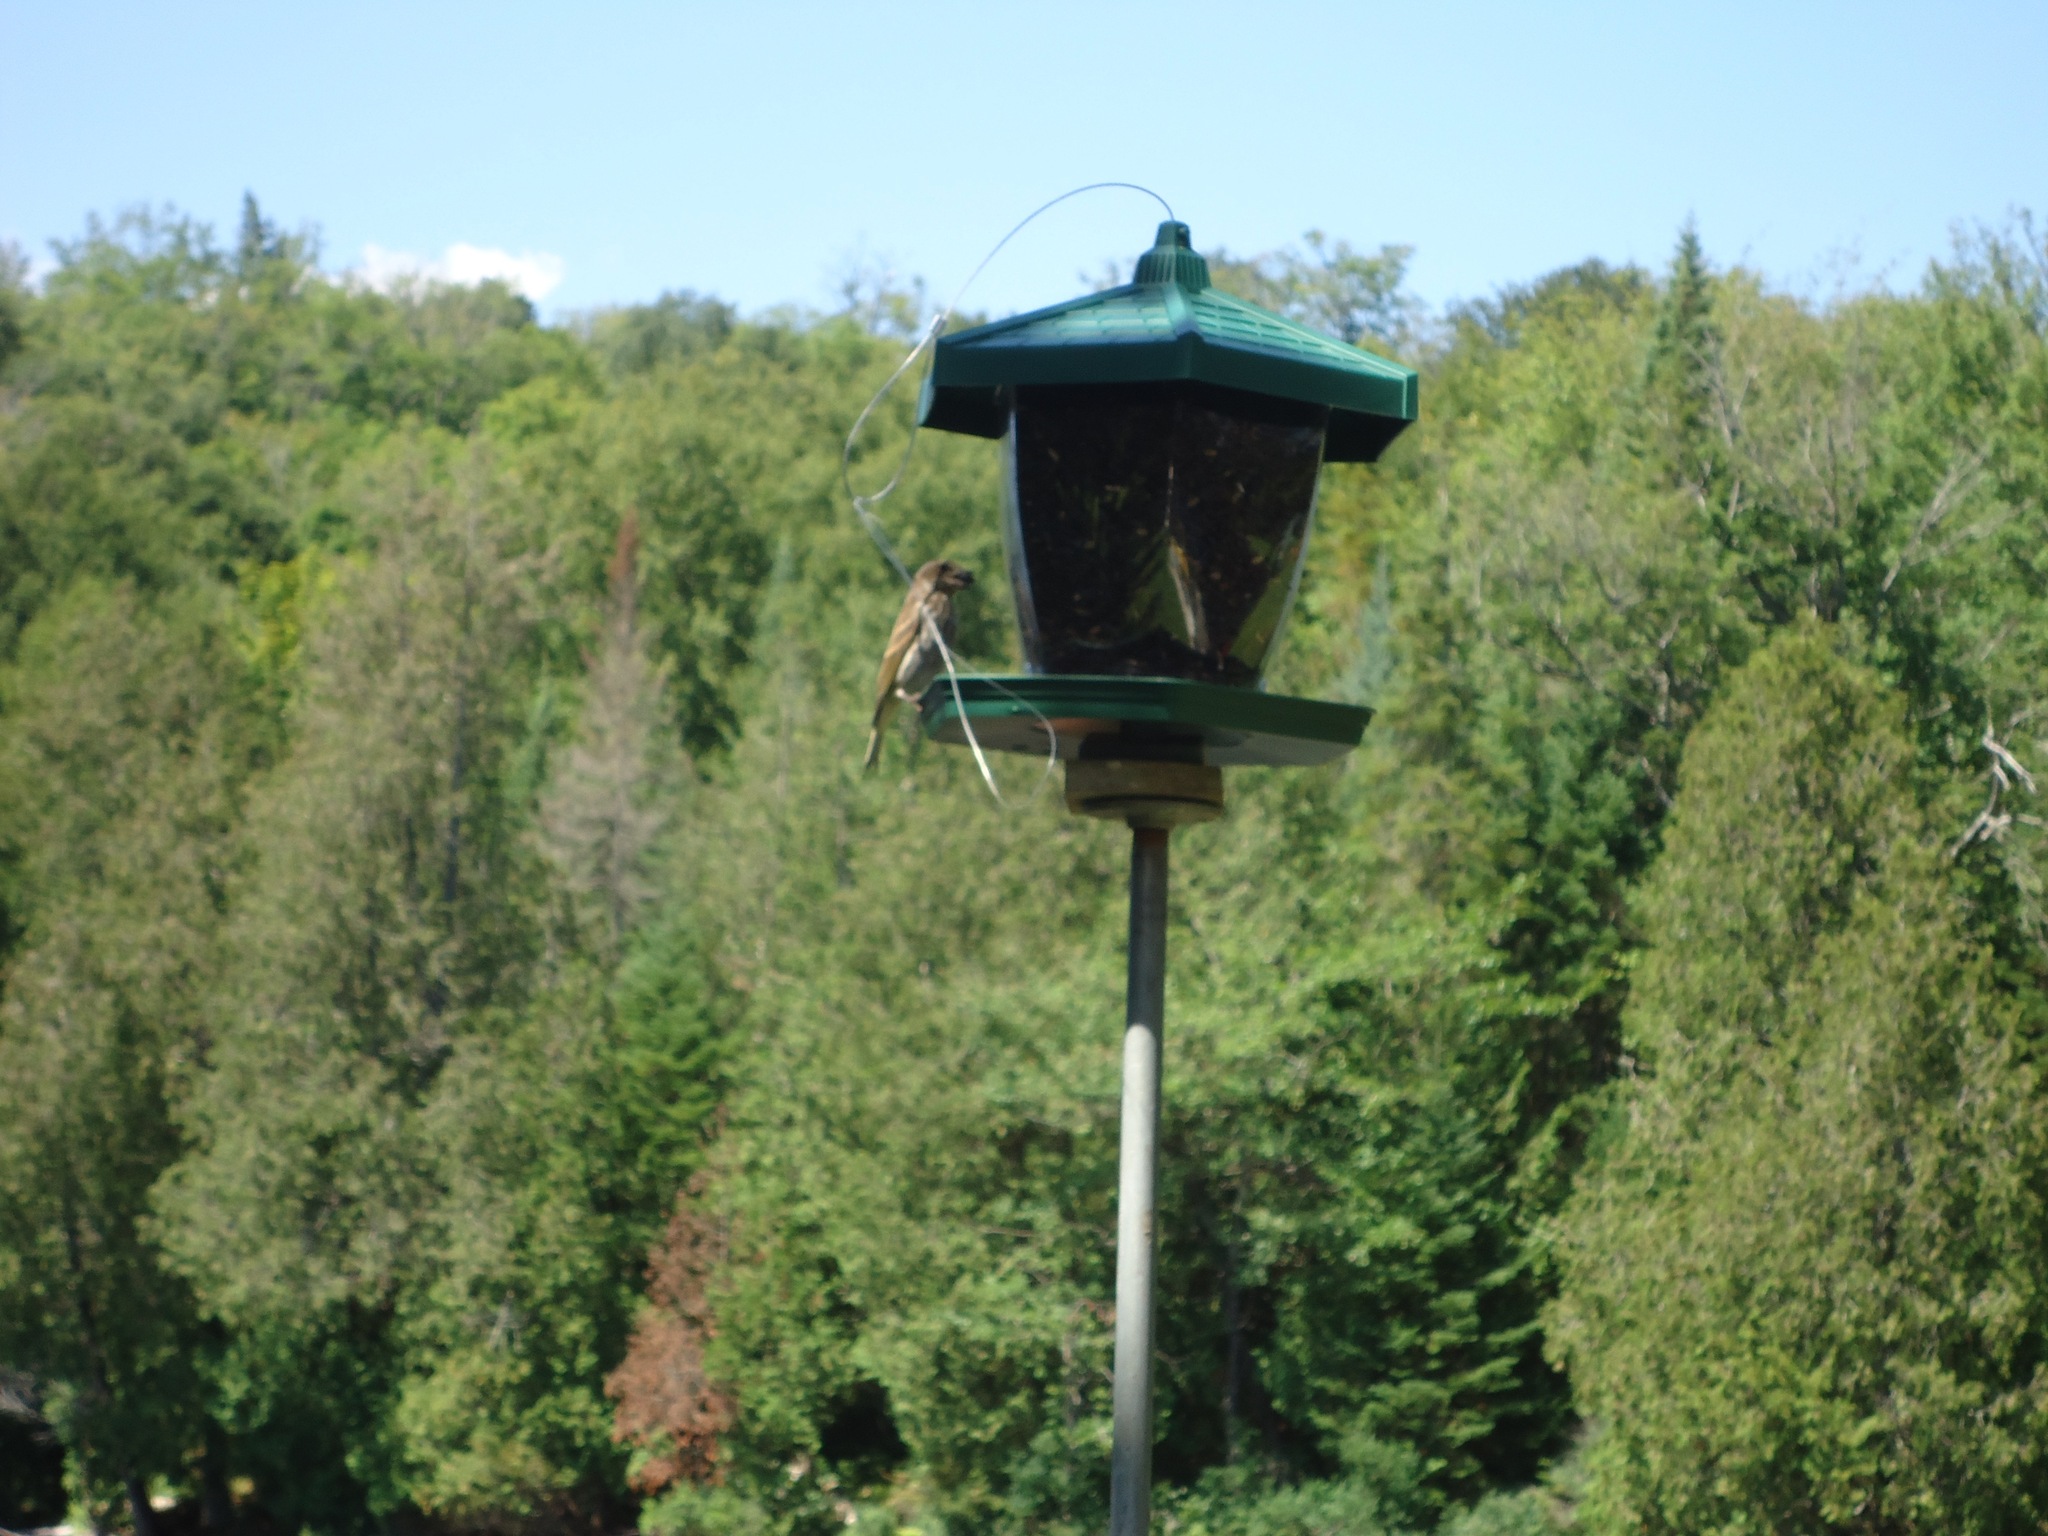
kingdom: Animalia
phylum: Chordata
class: Aves
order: Passeriformes
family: Fringillidae
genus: Haemorhous
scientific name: Haemorhous purpureus
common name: Purple finch
